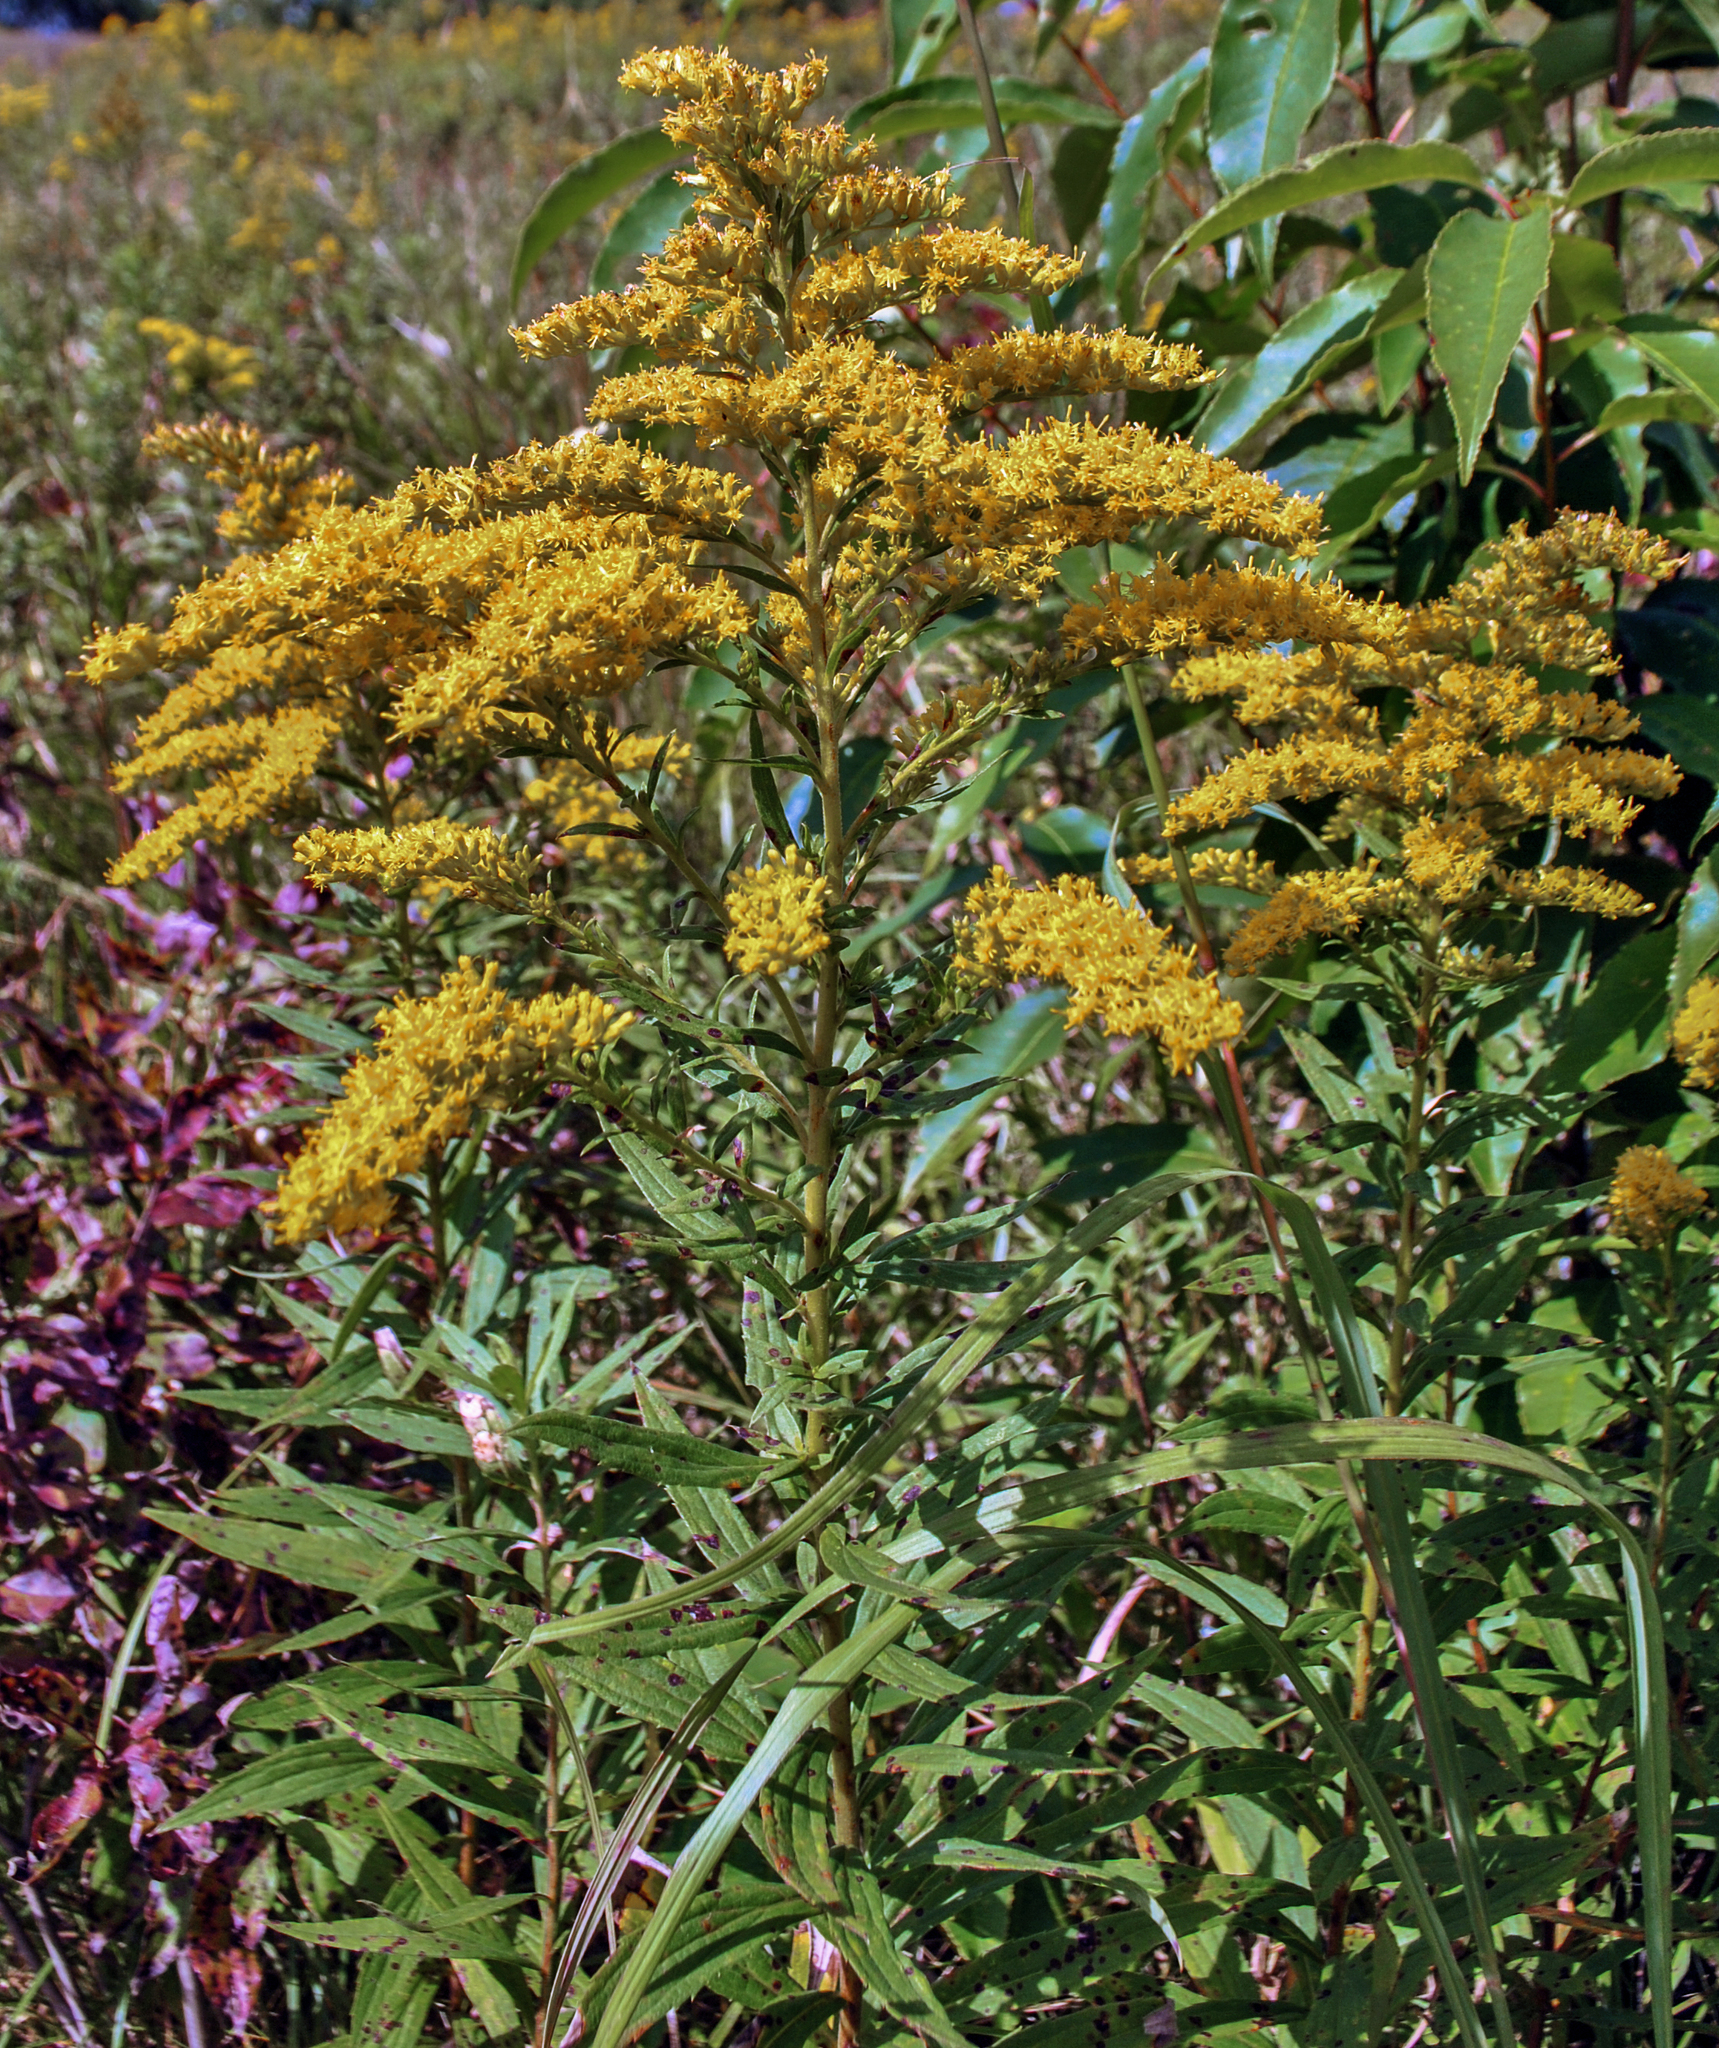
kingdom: Plantae
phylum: Tracheophyta
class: Magnoliopsida
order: Asterales
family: Asteraceae
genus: Solidago
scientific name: Solidago canadensis
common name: Canada goldenrod
